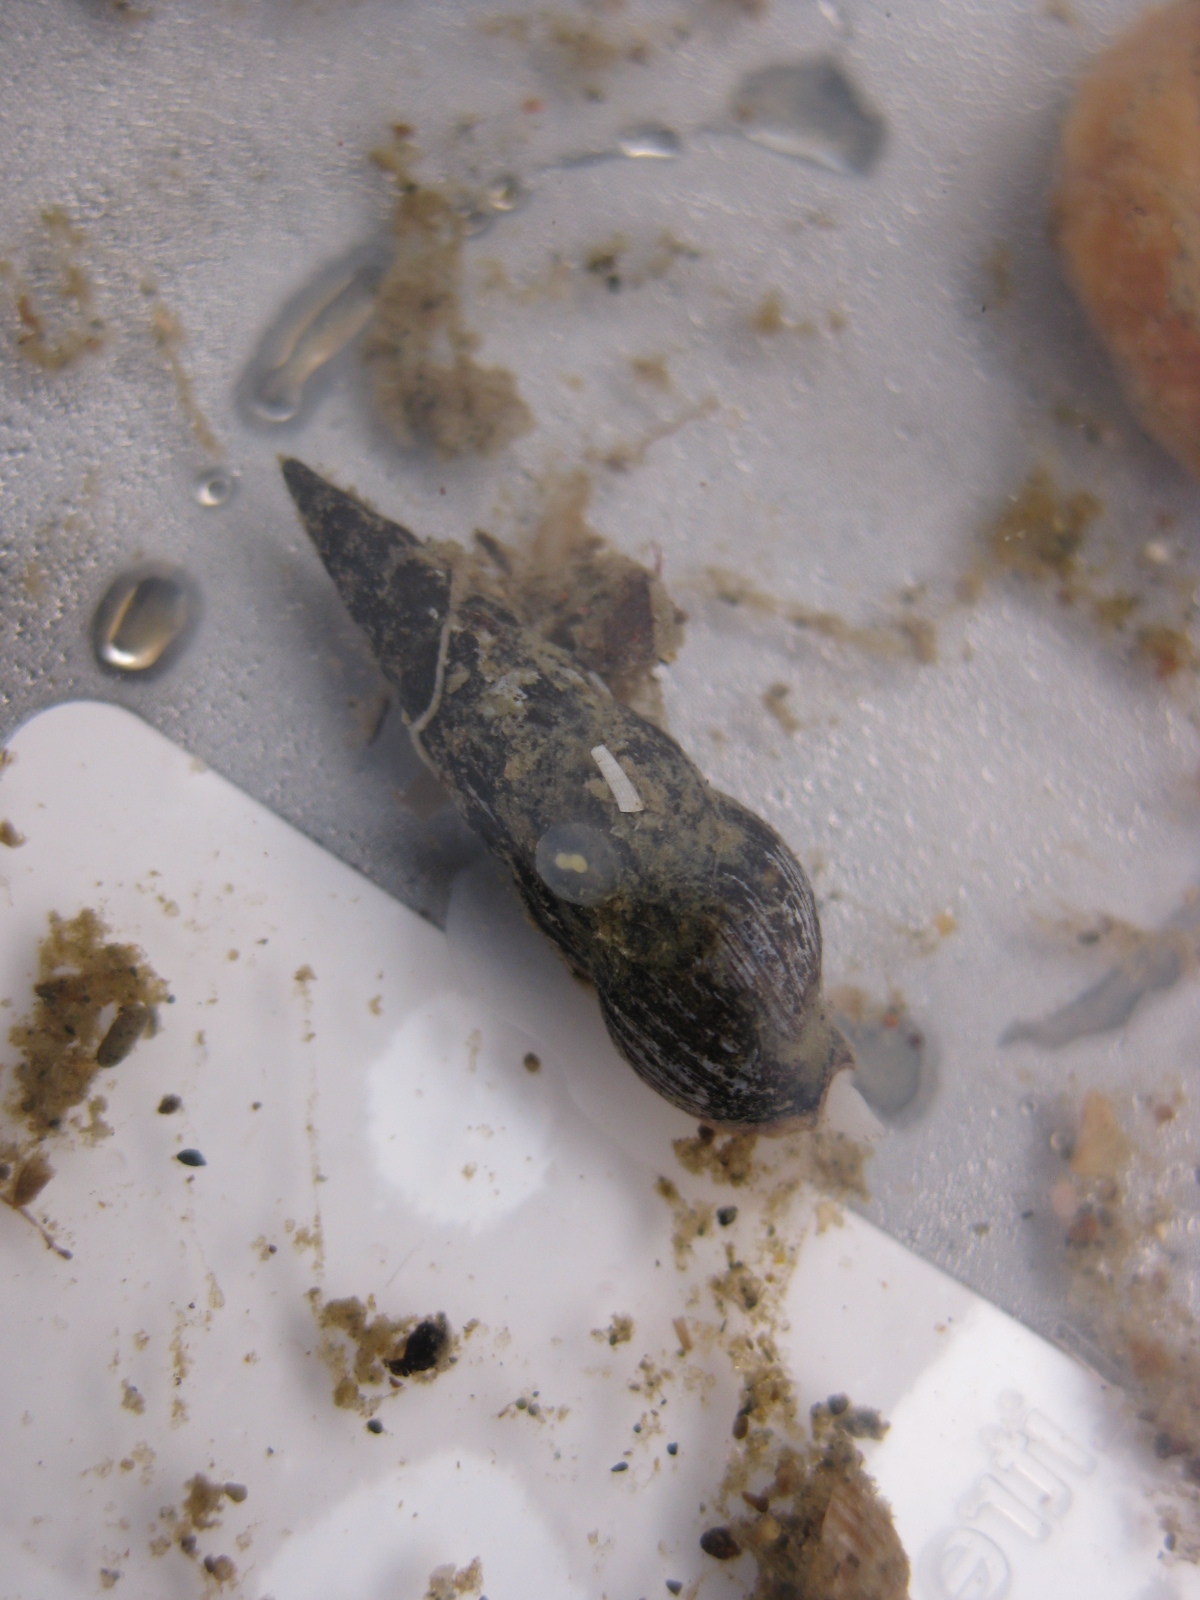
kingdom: Animalia
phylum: Mollusca
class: Gastropoda
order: Neogastropoda
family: Terebridae
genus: Duplicaria
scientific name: Duplicaria tristis
